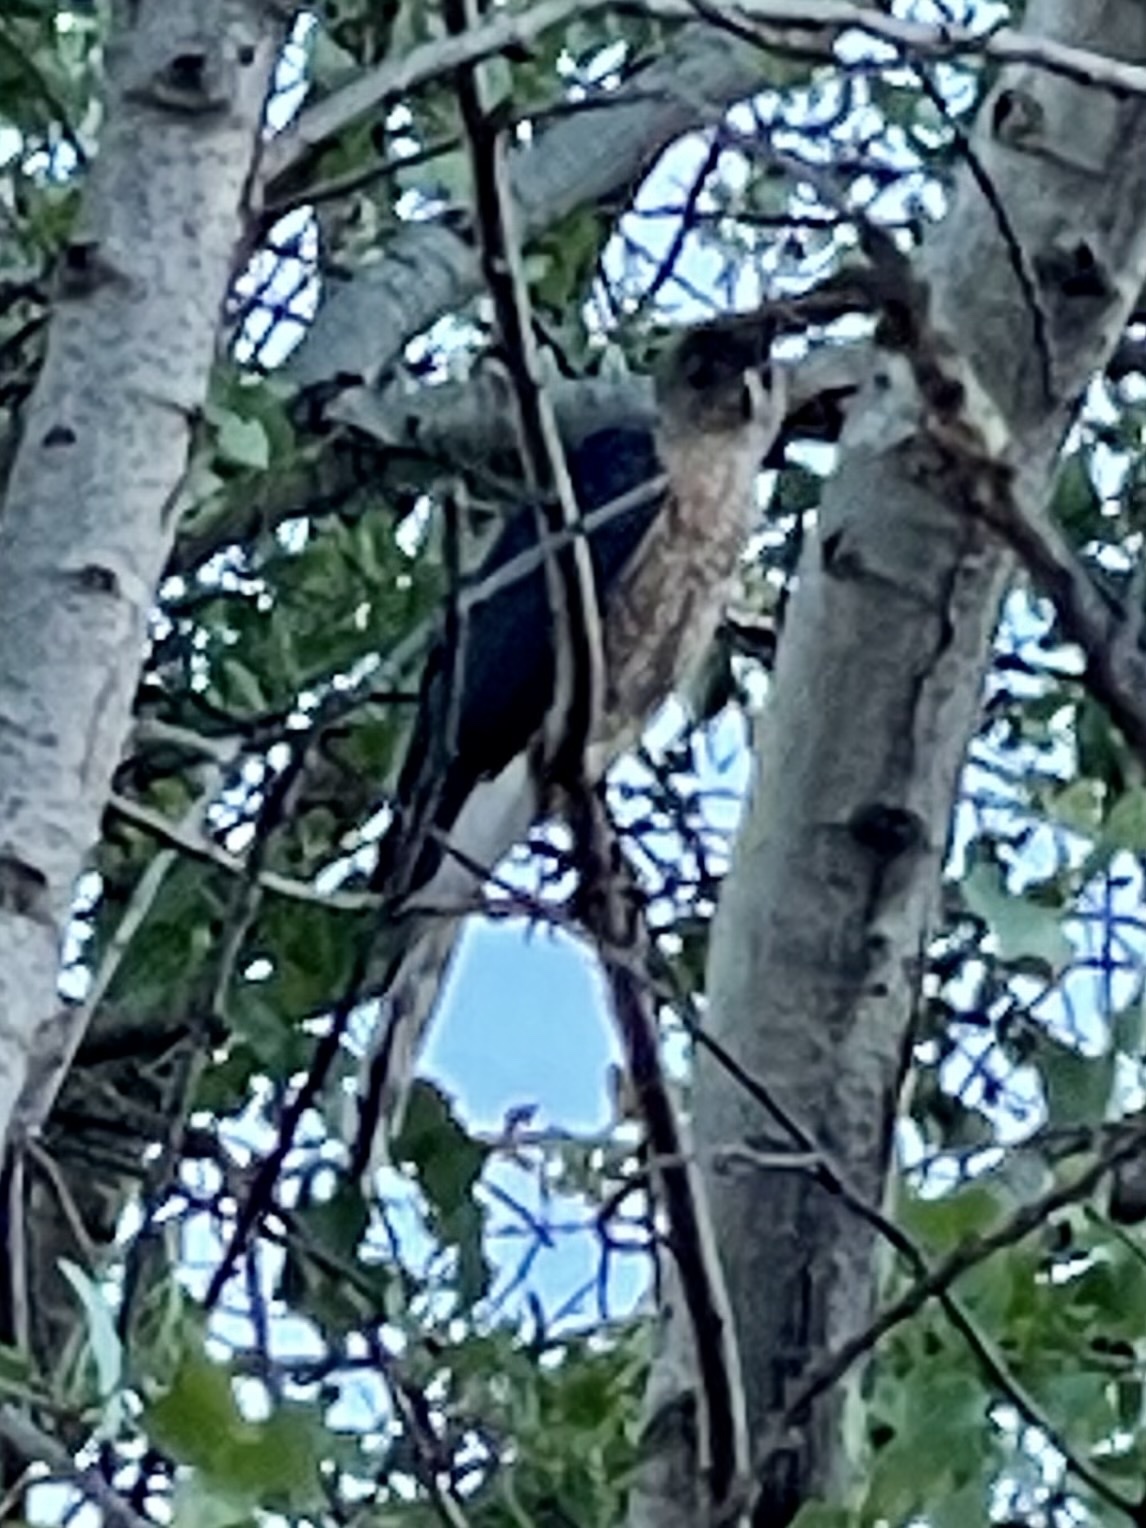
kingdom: Animalia
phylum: Chordata
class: Aves
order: Accipitriformes
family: Accipitridae
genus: Accipiter
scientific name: Accipiter cooperii
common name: Cooper's hawk
